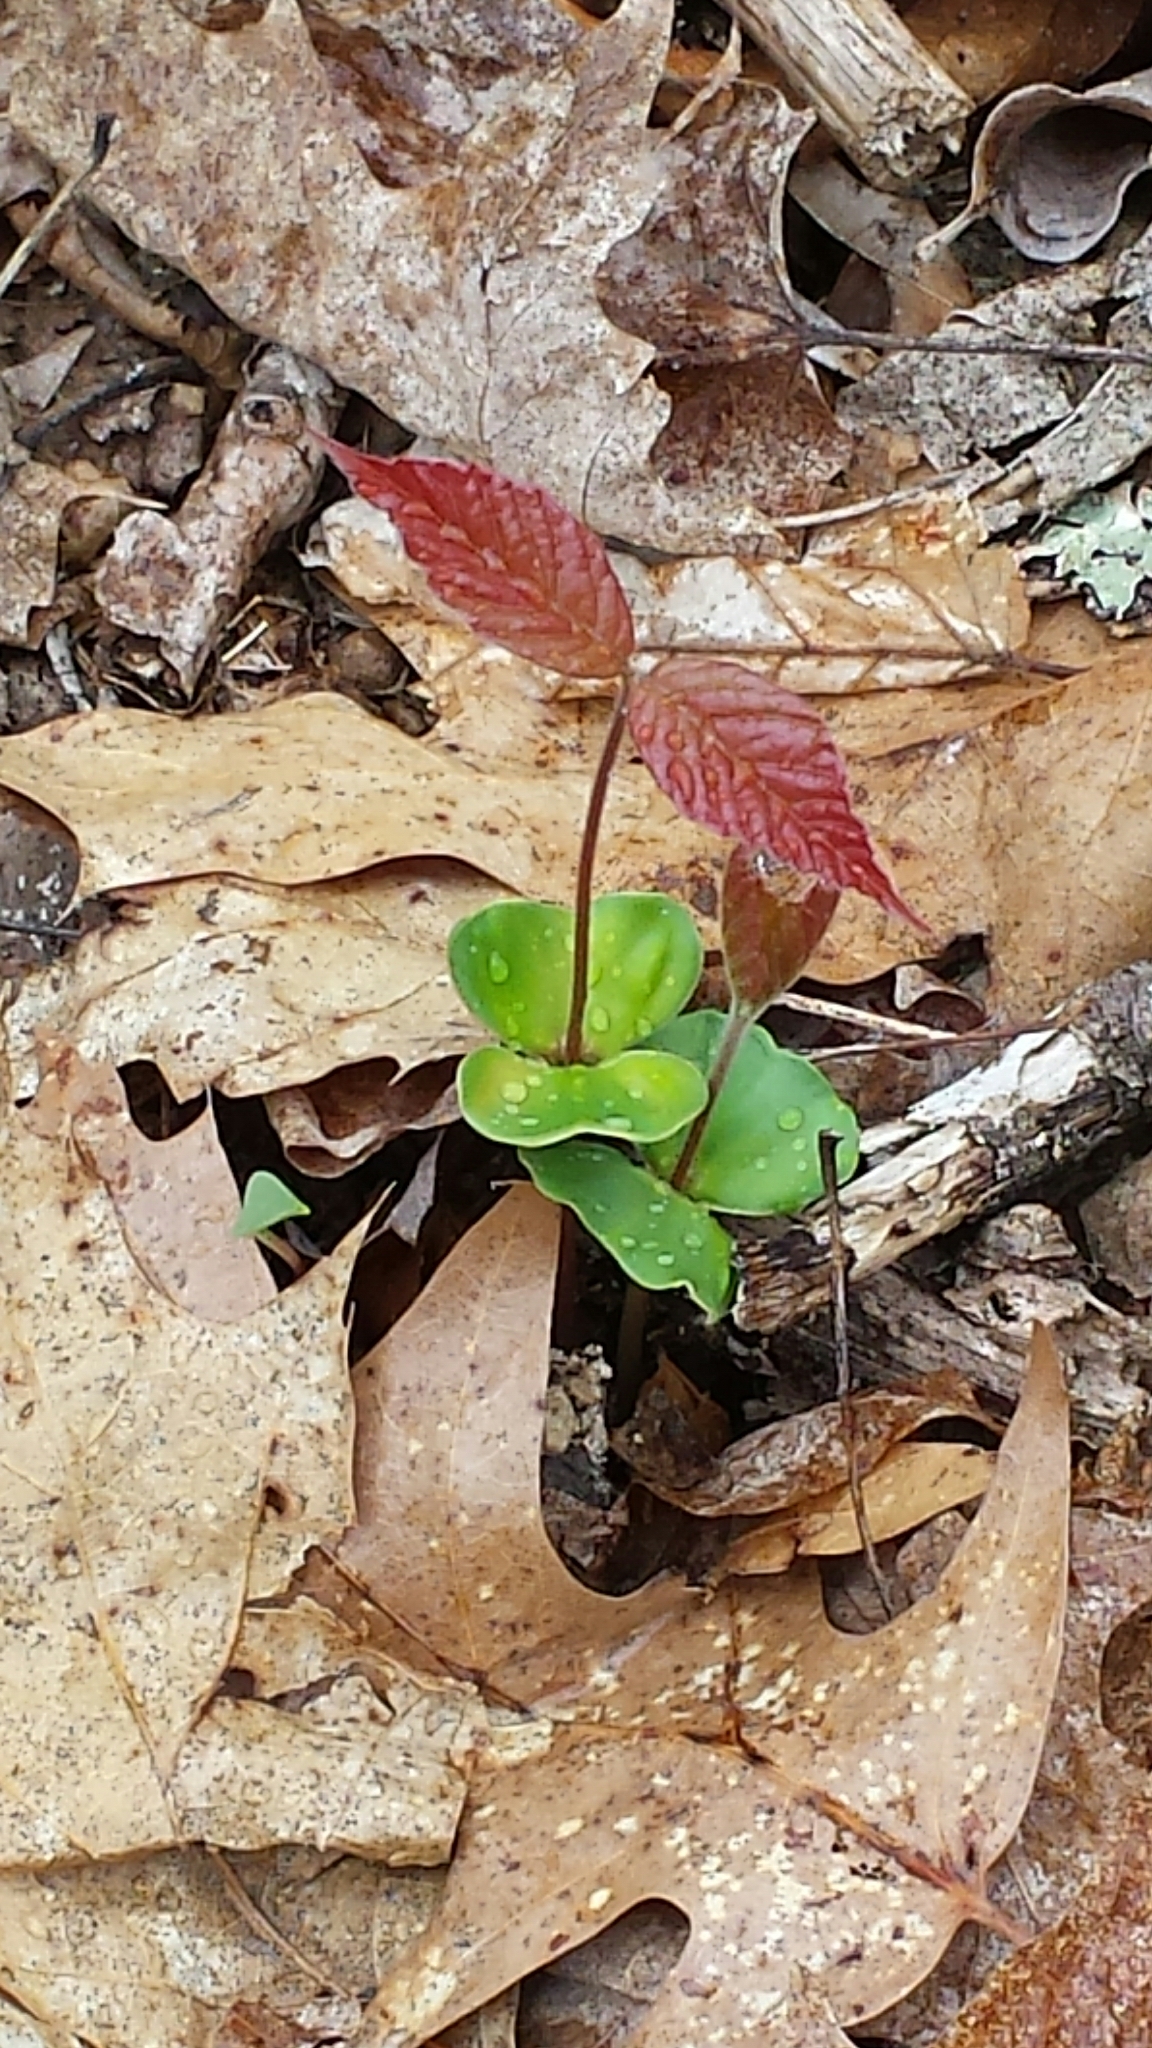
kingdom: Plantae
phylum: Tracheophyta
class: Magnoliopsida
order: Fagales
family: Fagaceae
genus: Fagus
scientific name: Fagus grandifolia
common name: American beech
